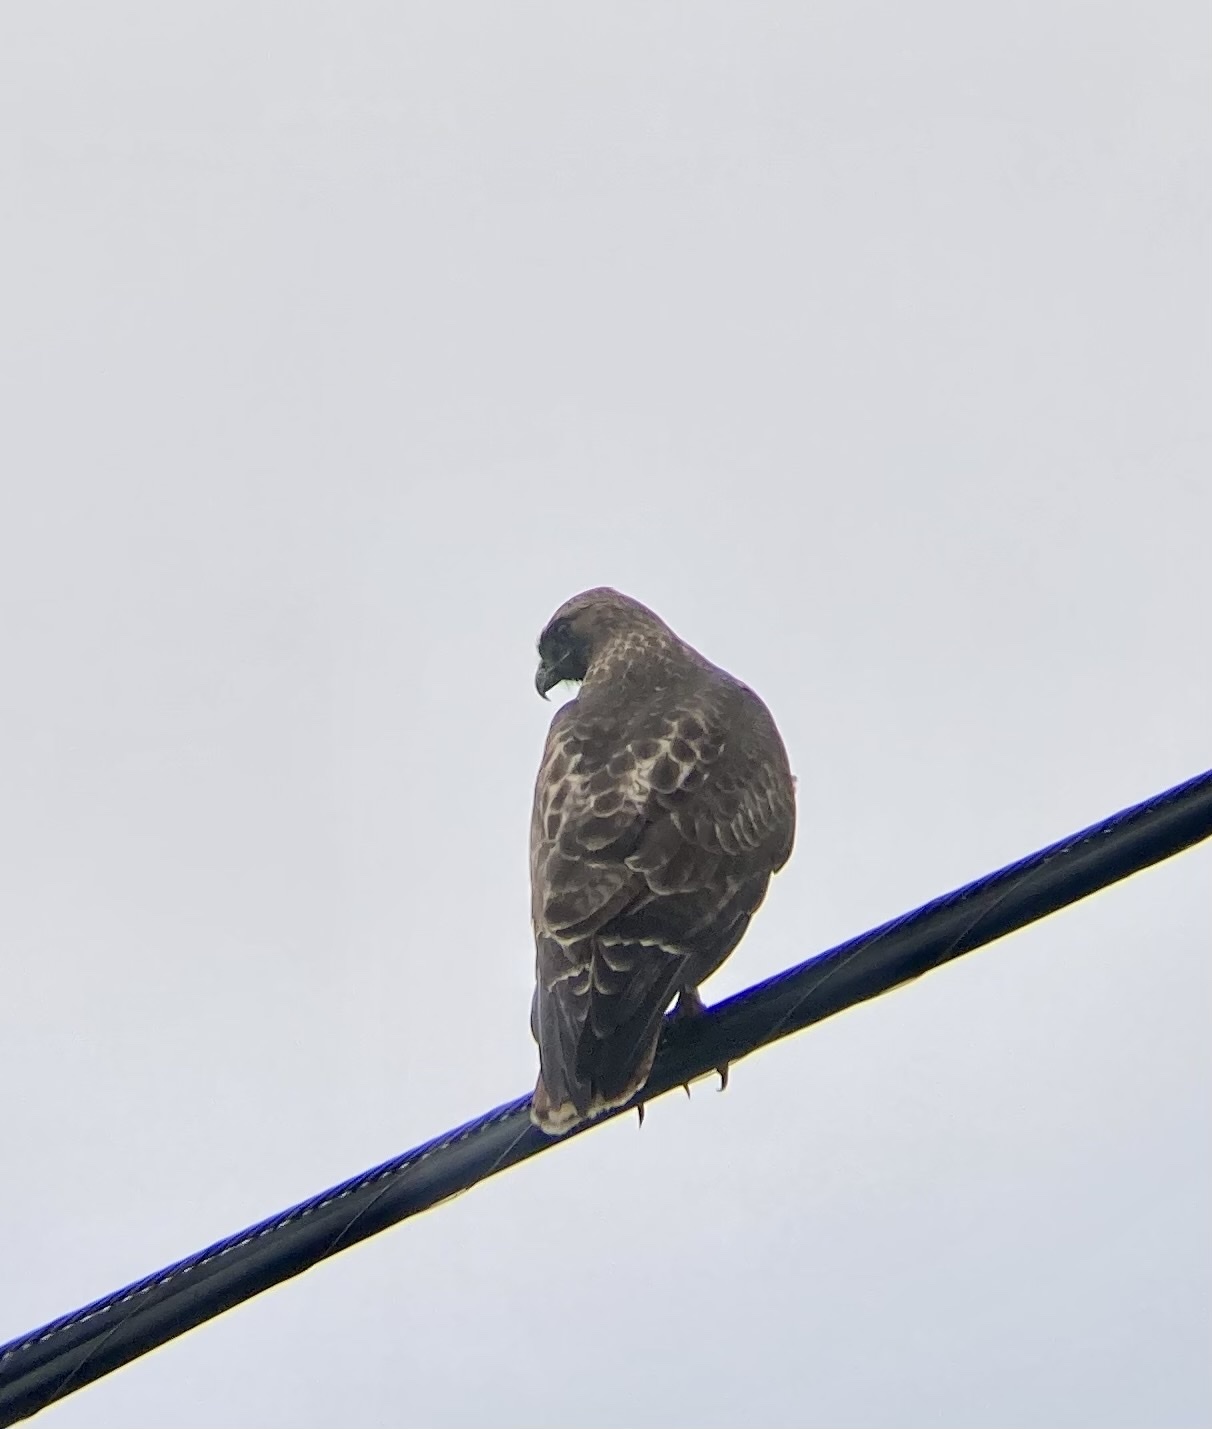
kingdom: Animalia
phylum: Chordata
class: Aves
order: Accipitriformes
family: Accipitridae
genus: Buteo
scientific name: Buteo jamaicensis
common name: Red-tailed hawk
